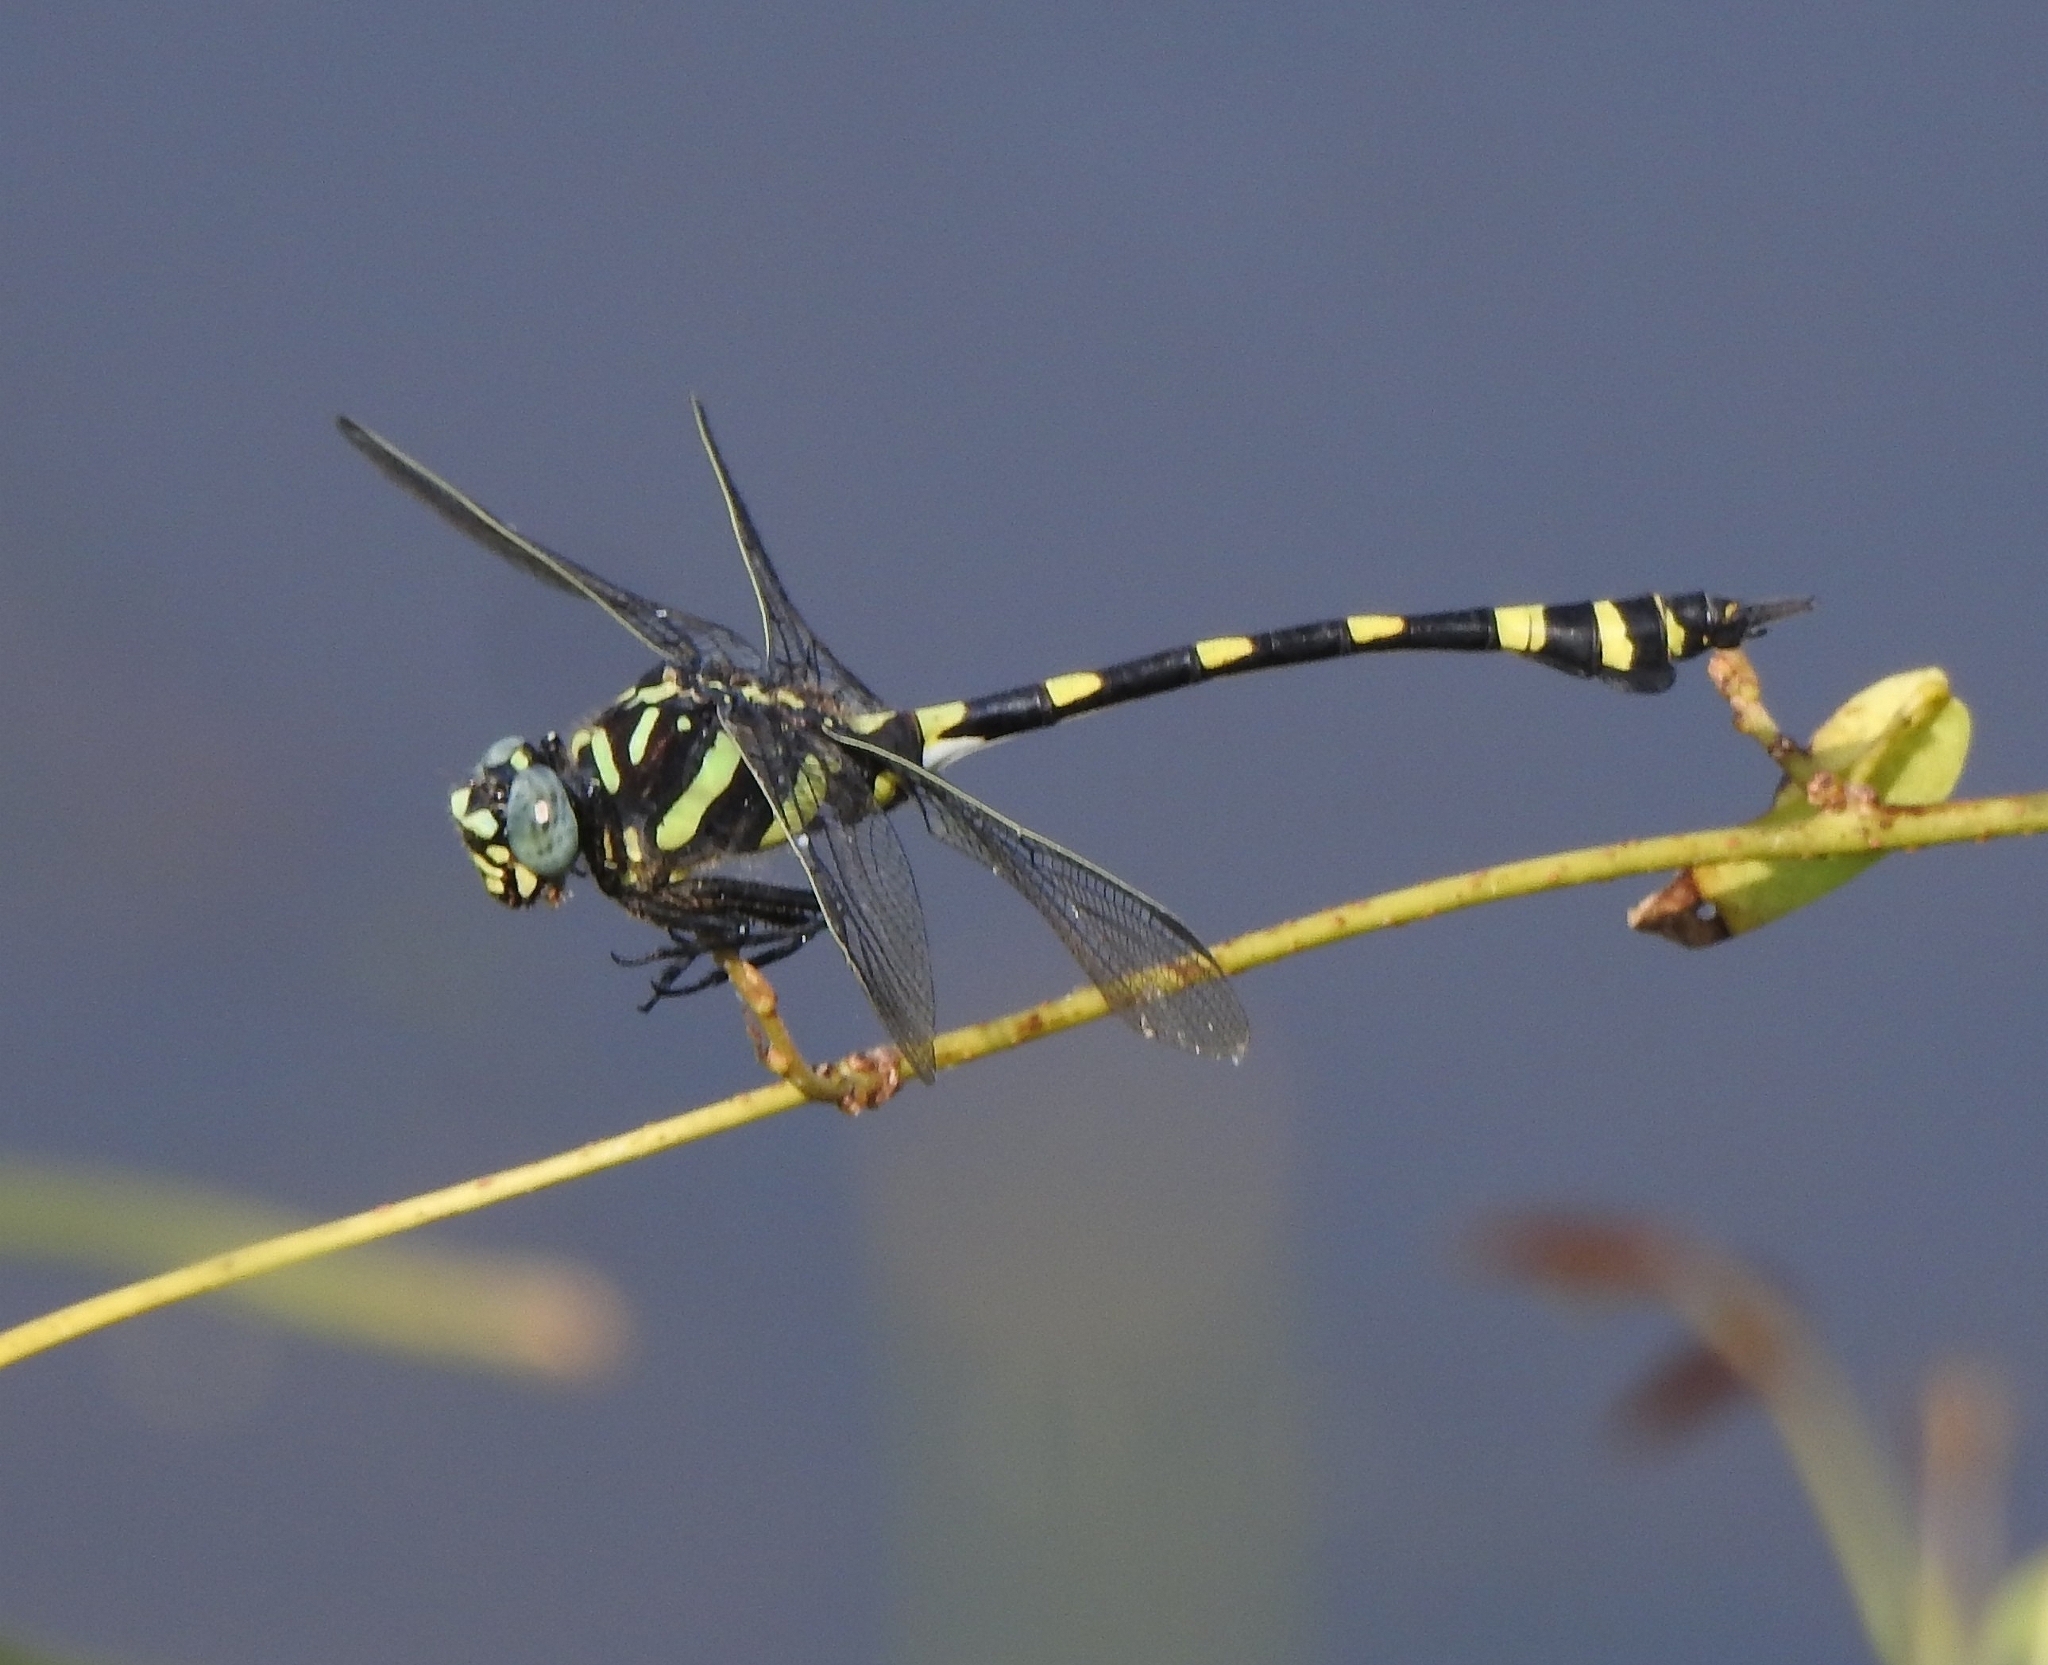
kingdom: Animalia
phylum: Arthropoda
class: Insecta
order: Odonata
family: Gomphidae
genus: Ictinogomphus
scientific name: Ictinogomphus rapax
